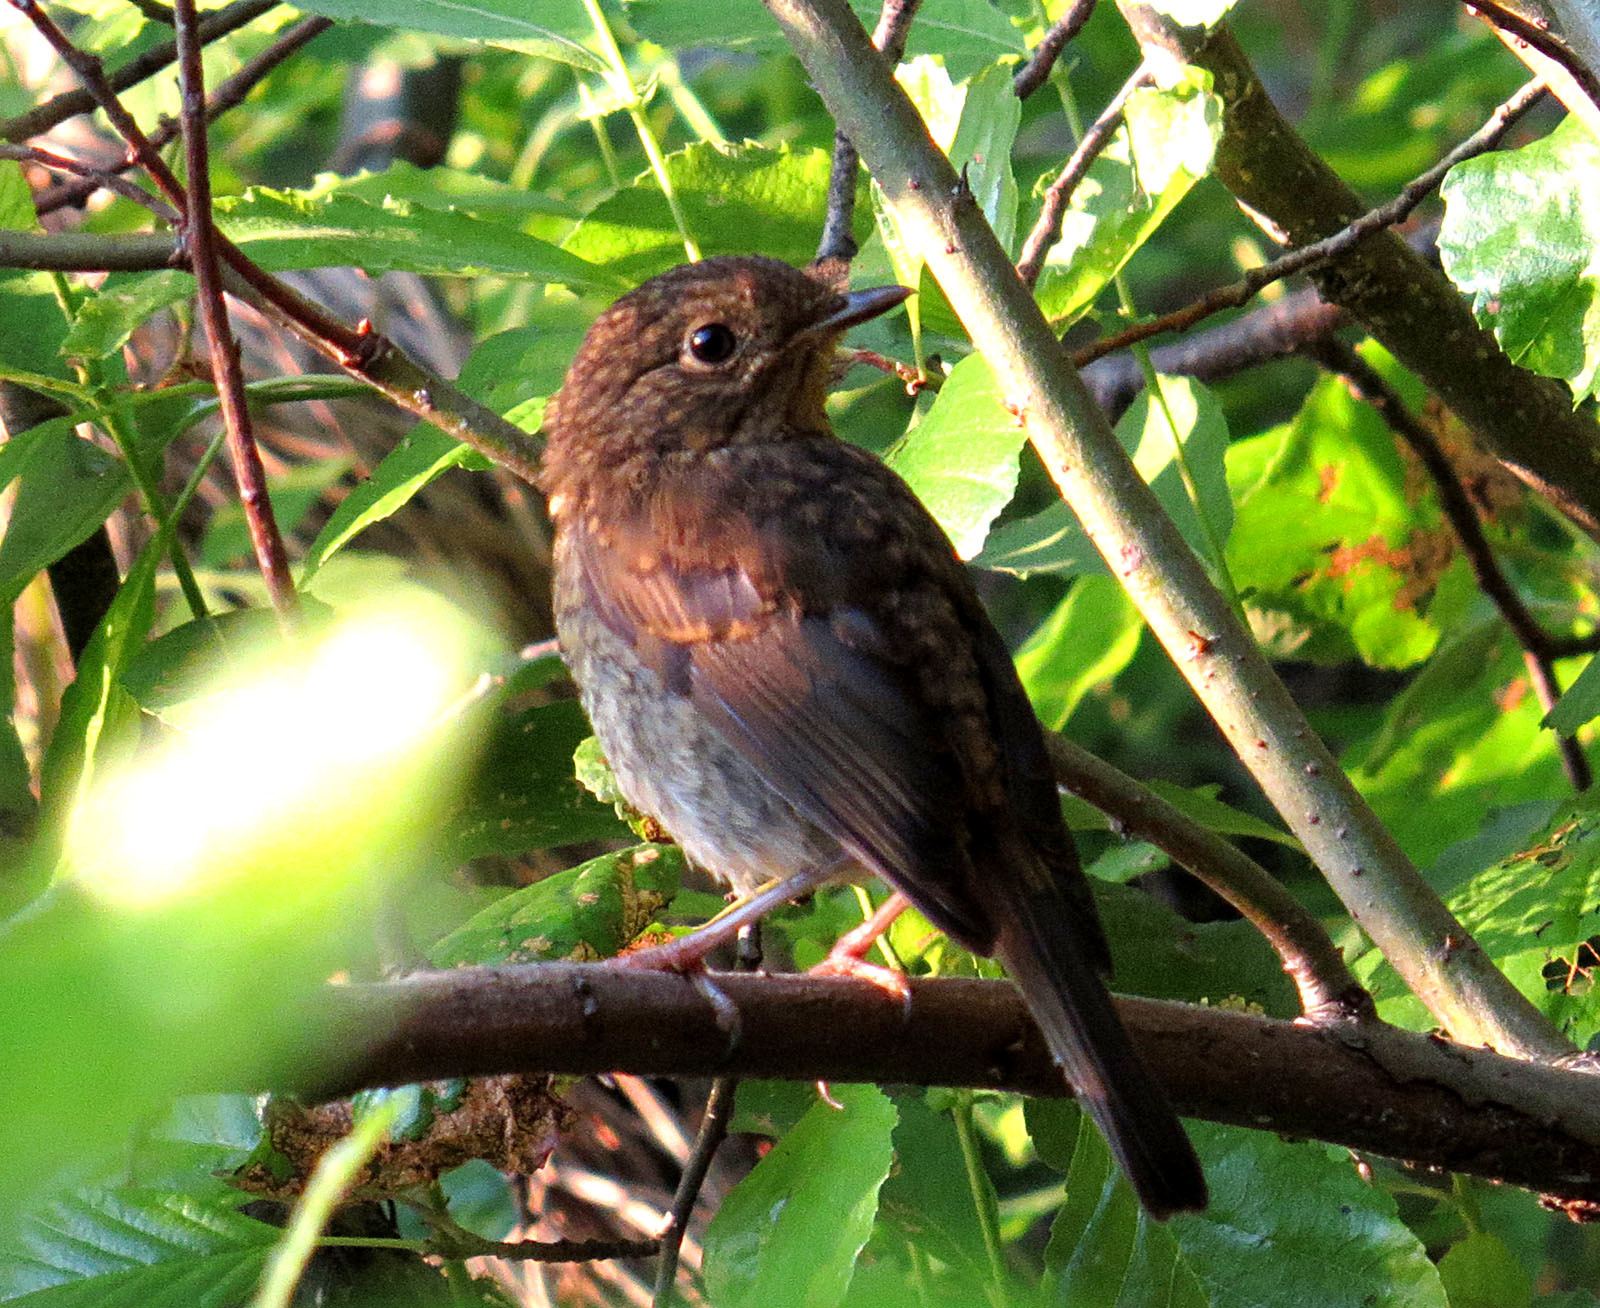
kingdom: Animalia
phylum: Chordata
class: Aves
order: Passeriformes
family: Muscicapidae
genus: Erithacus
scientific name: Erithacus rubecula
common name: European robin
